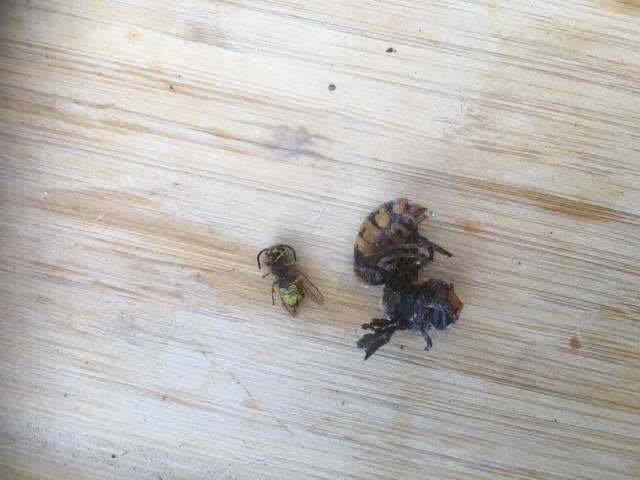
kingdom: Animalia
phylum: Arthropoda
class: Insecta
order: Hymenoptera
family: Vespidae
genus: Vespa
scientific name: Vespa crabro
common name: Hornet
